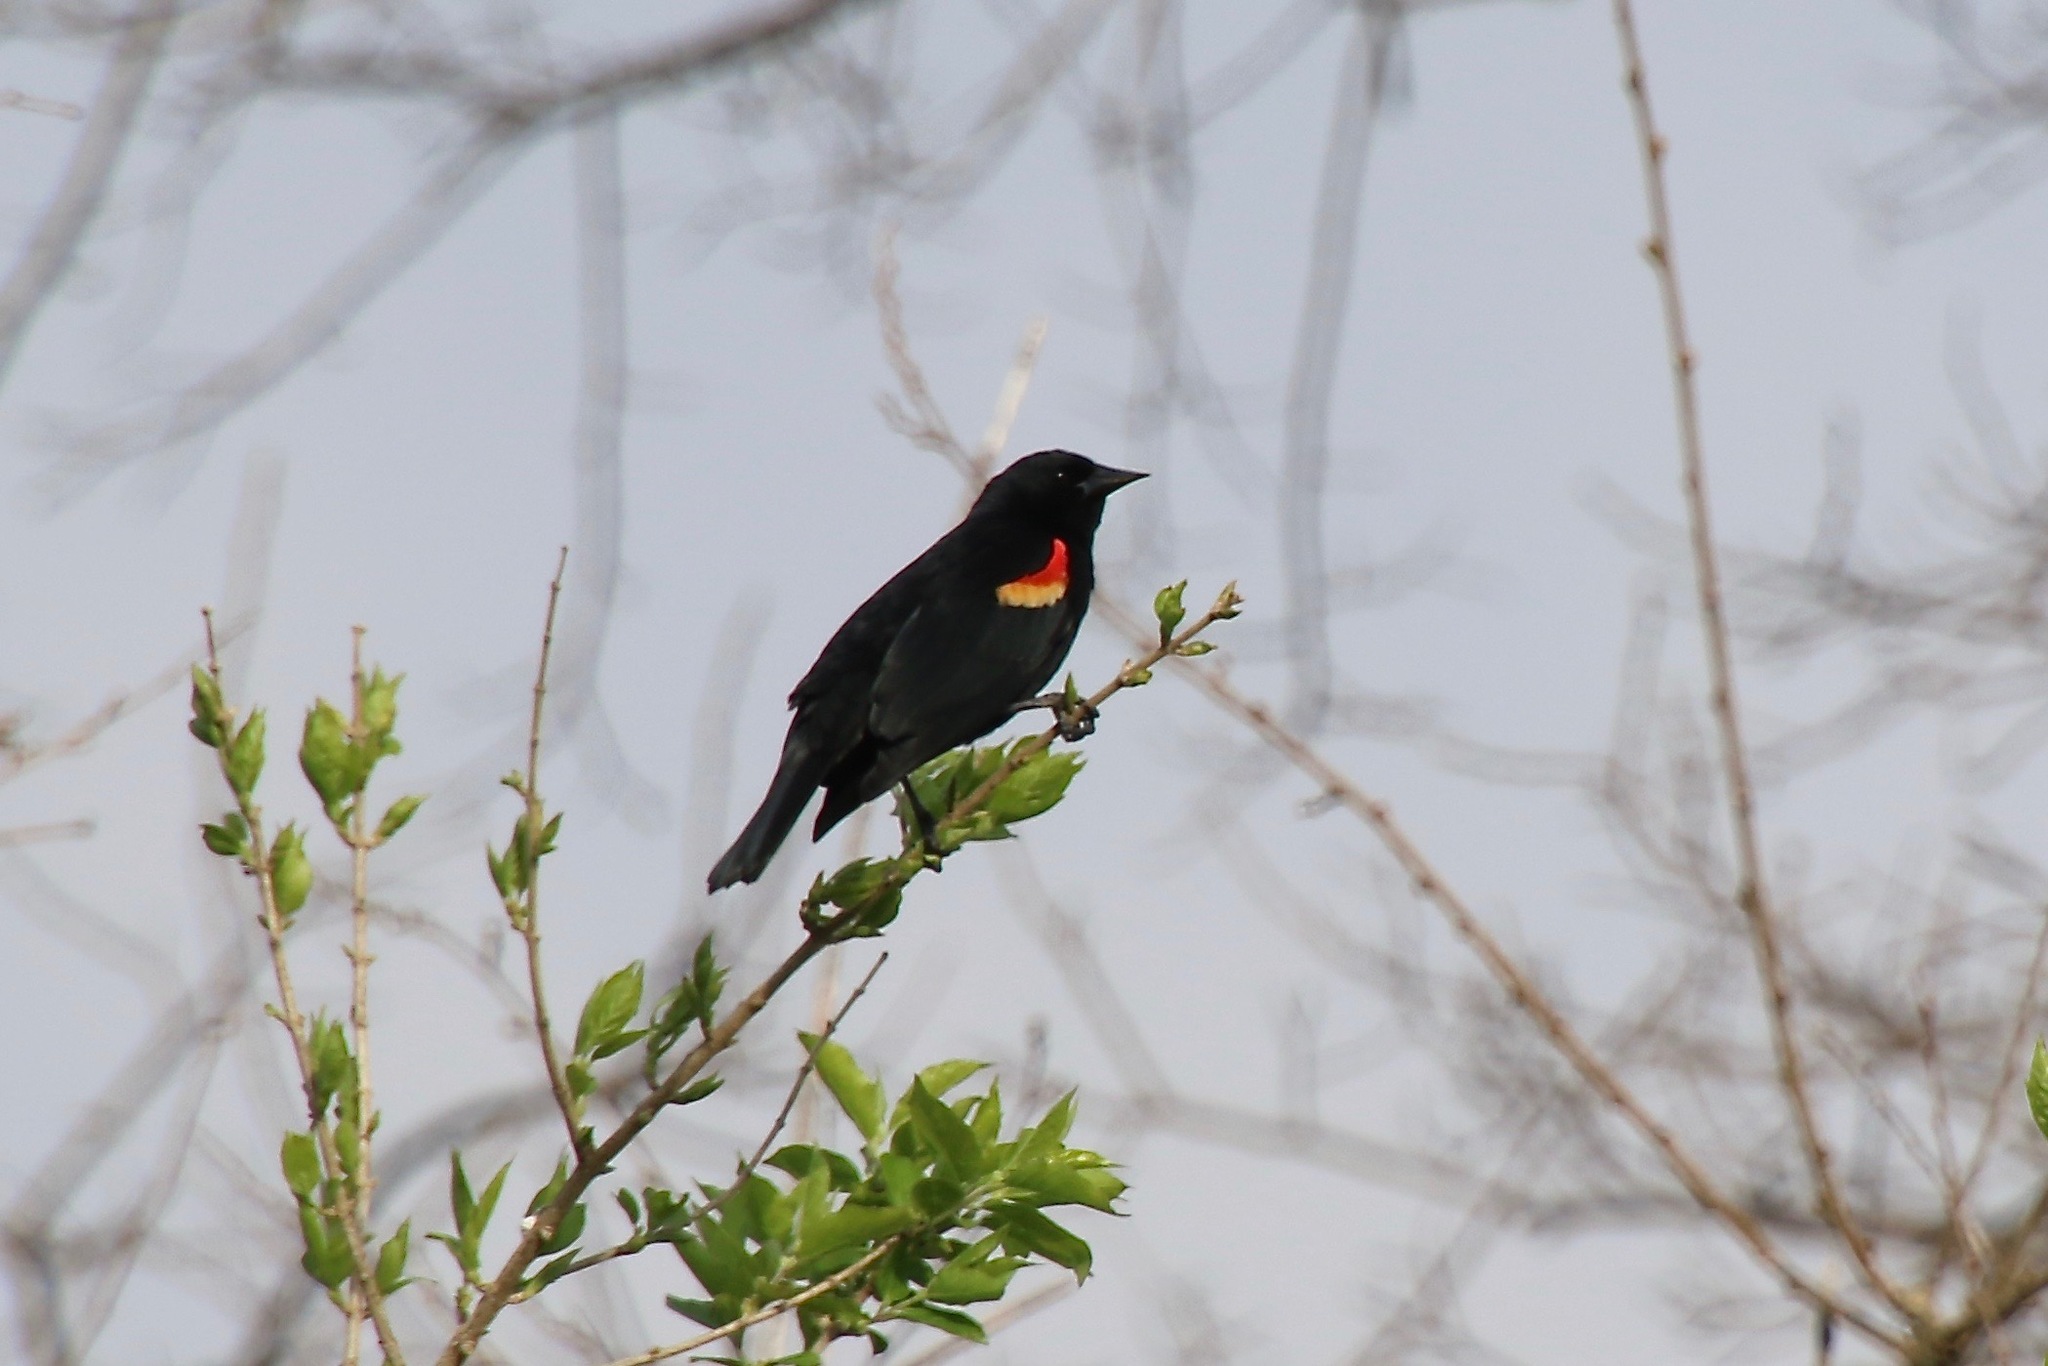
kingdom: Animalia
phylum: Chordata
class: Aves
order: Passeriformes
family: Icteridae
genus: Agelaius
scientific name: Agelaius phoeniceus
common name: Red-winged blackbird
